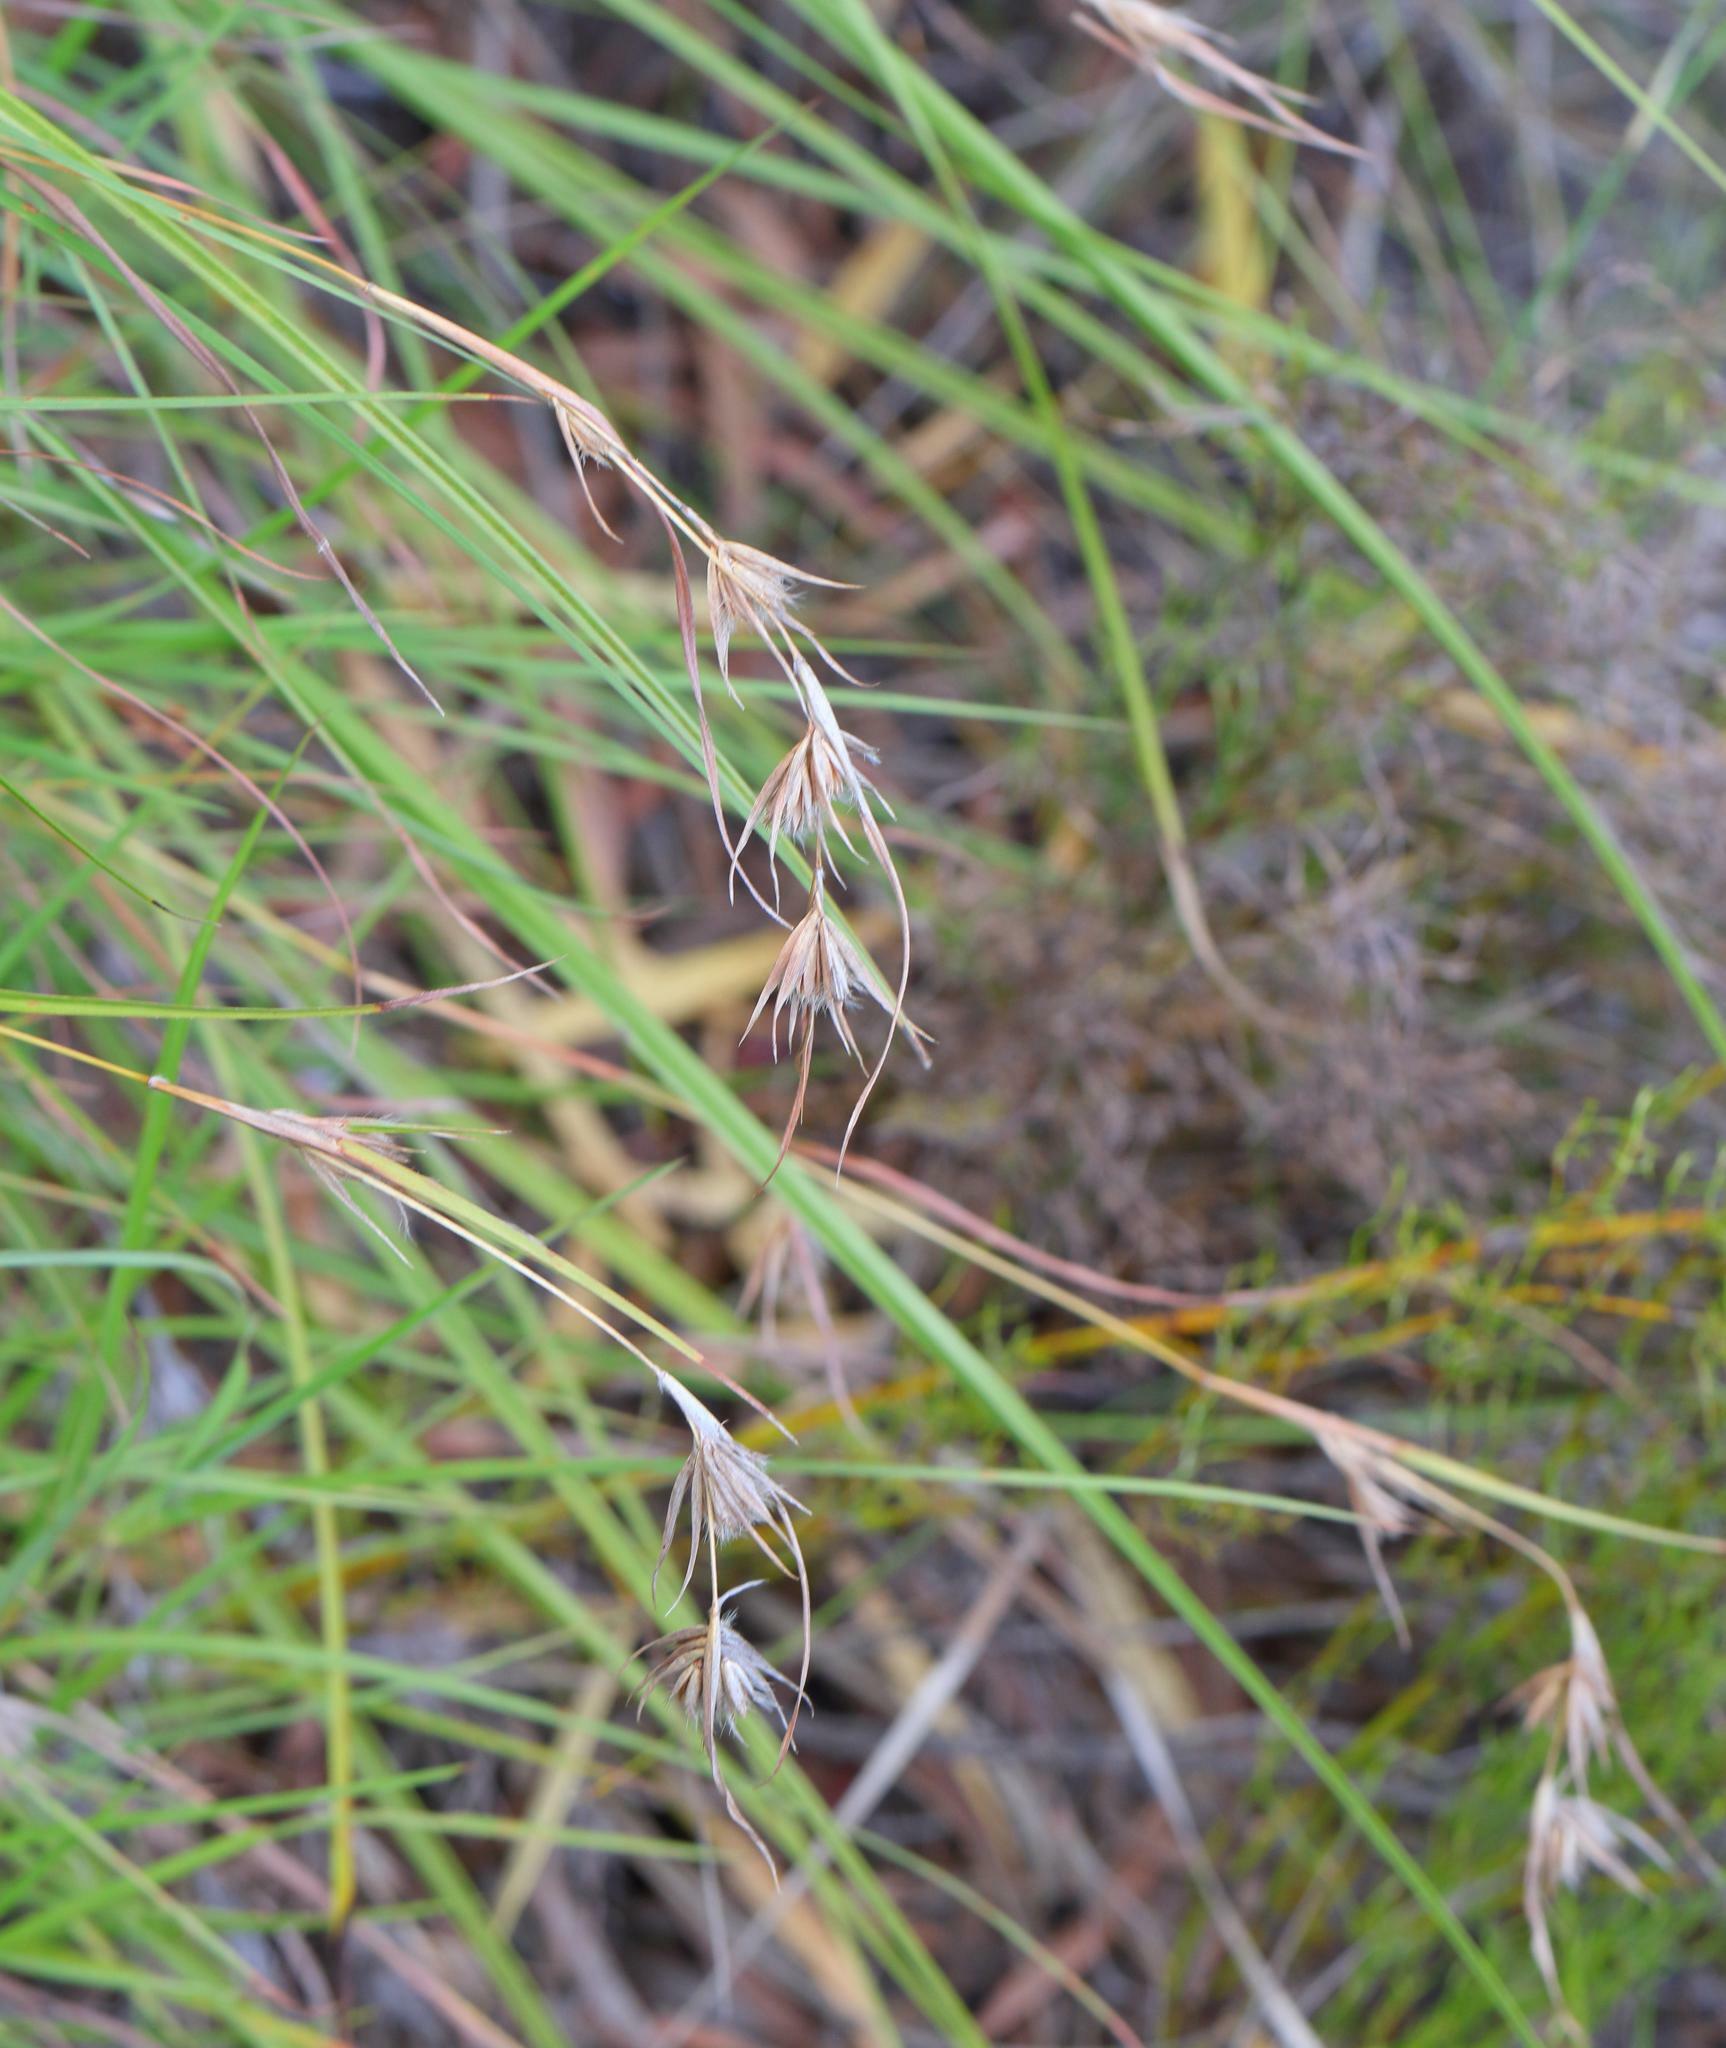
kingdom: Plantae
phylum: Tracheophyta
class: Liliopsida
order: Poales
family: Poaceae
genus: Themeda
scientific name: Themeda triandra
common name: Kangaroo grass
